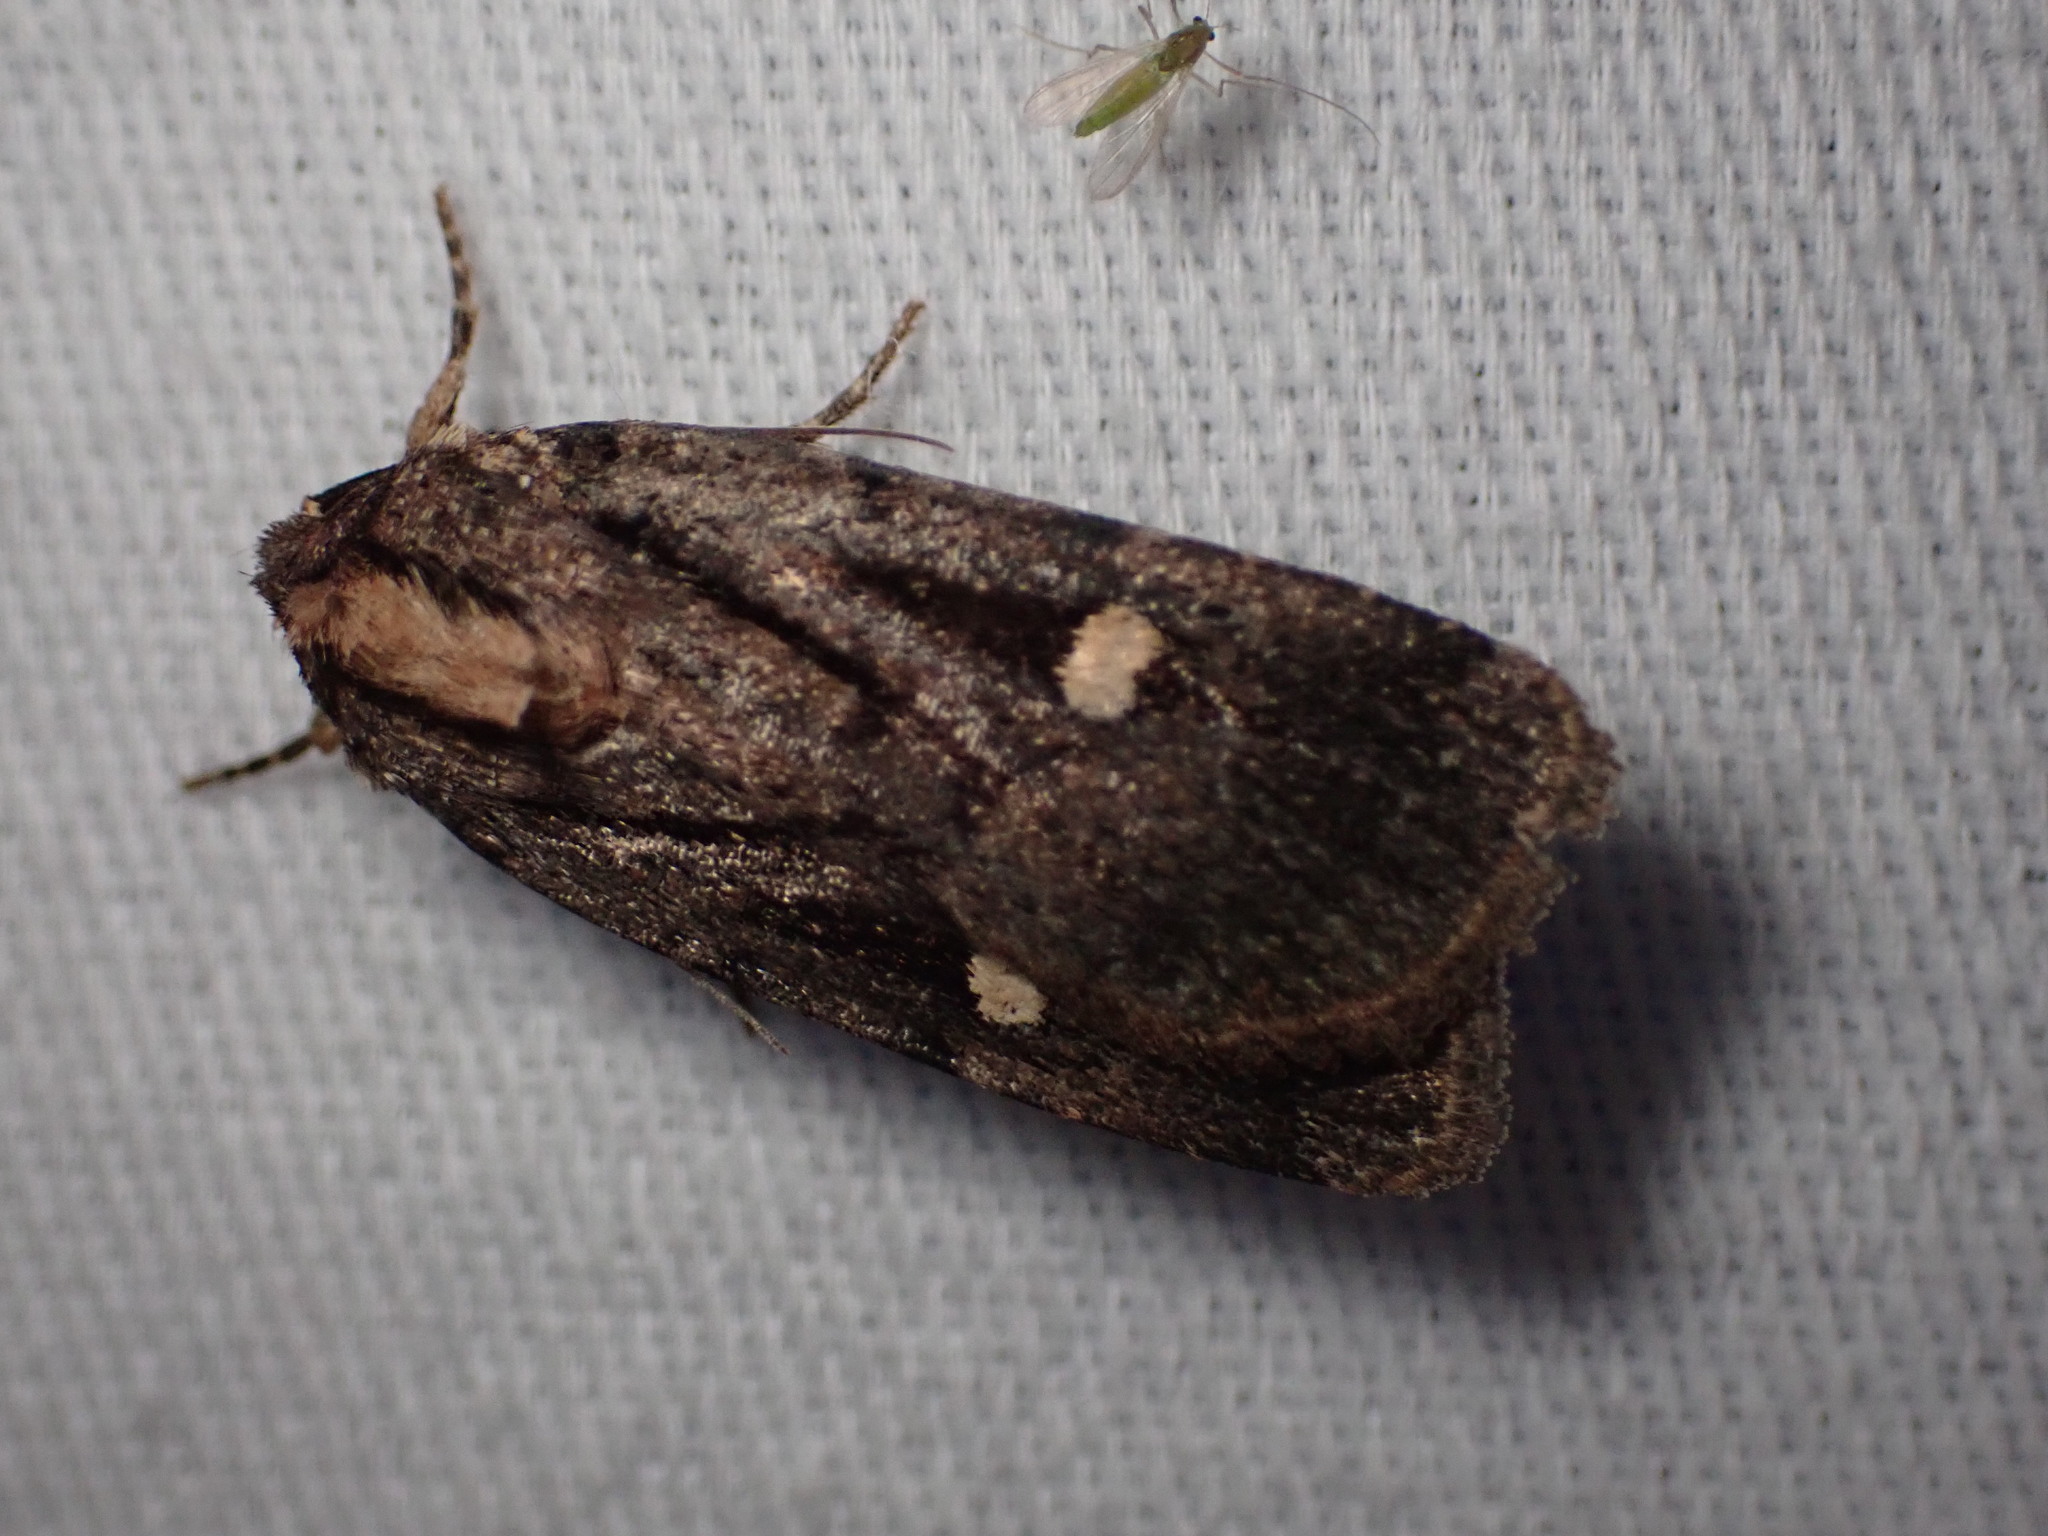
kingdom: Animalia
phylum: Arthropoda
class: Insecta
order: Lepidoptera
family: Noctuidae
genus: Abagrotis
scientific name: Abagrotis glenni
